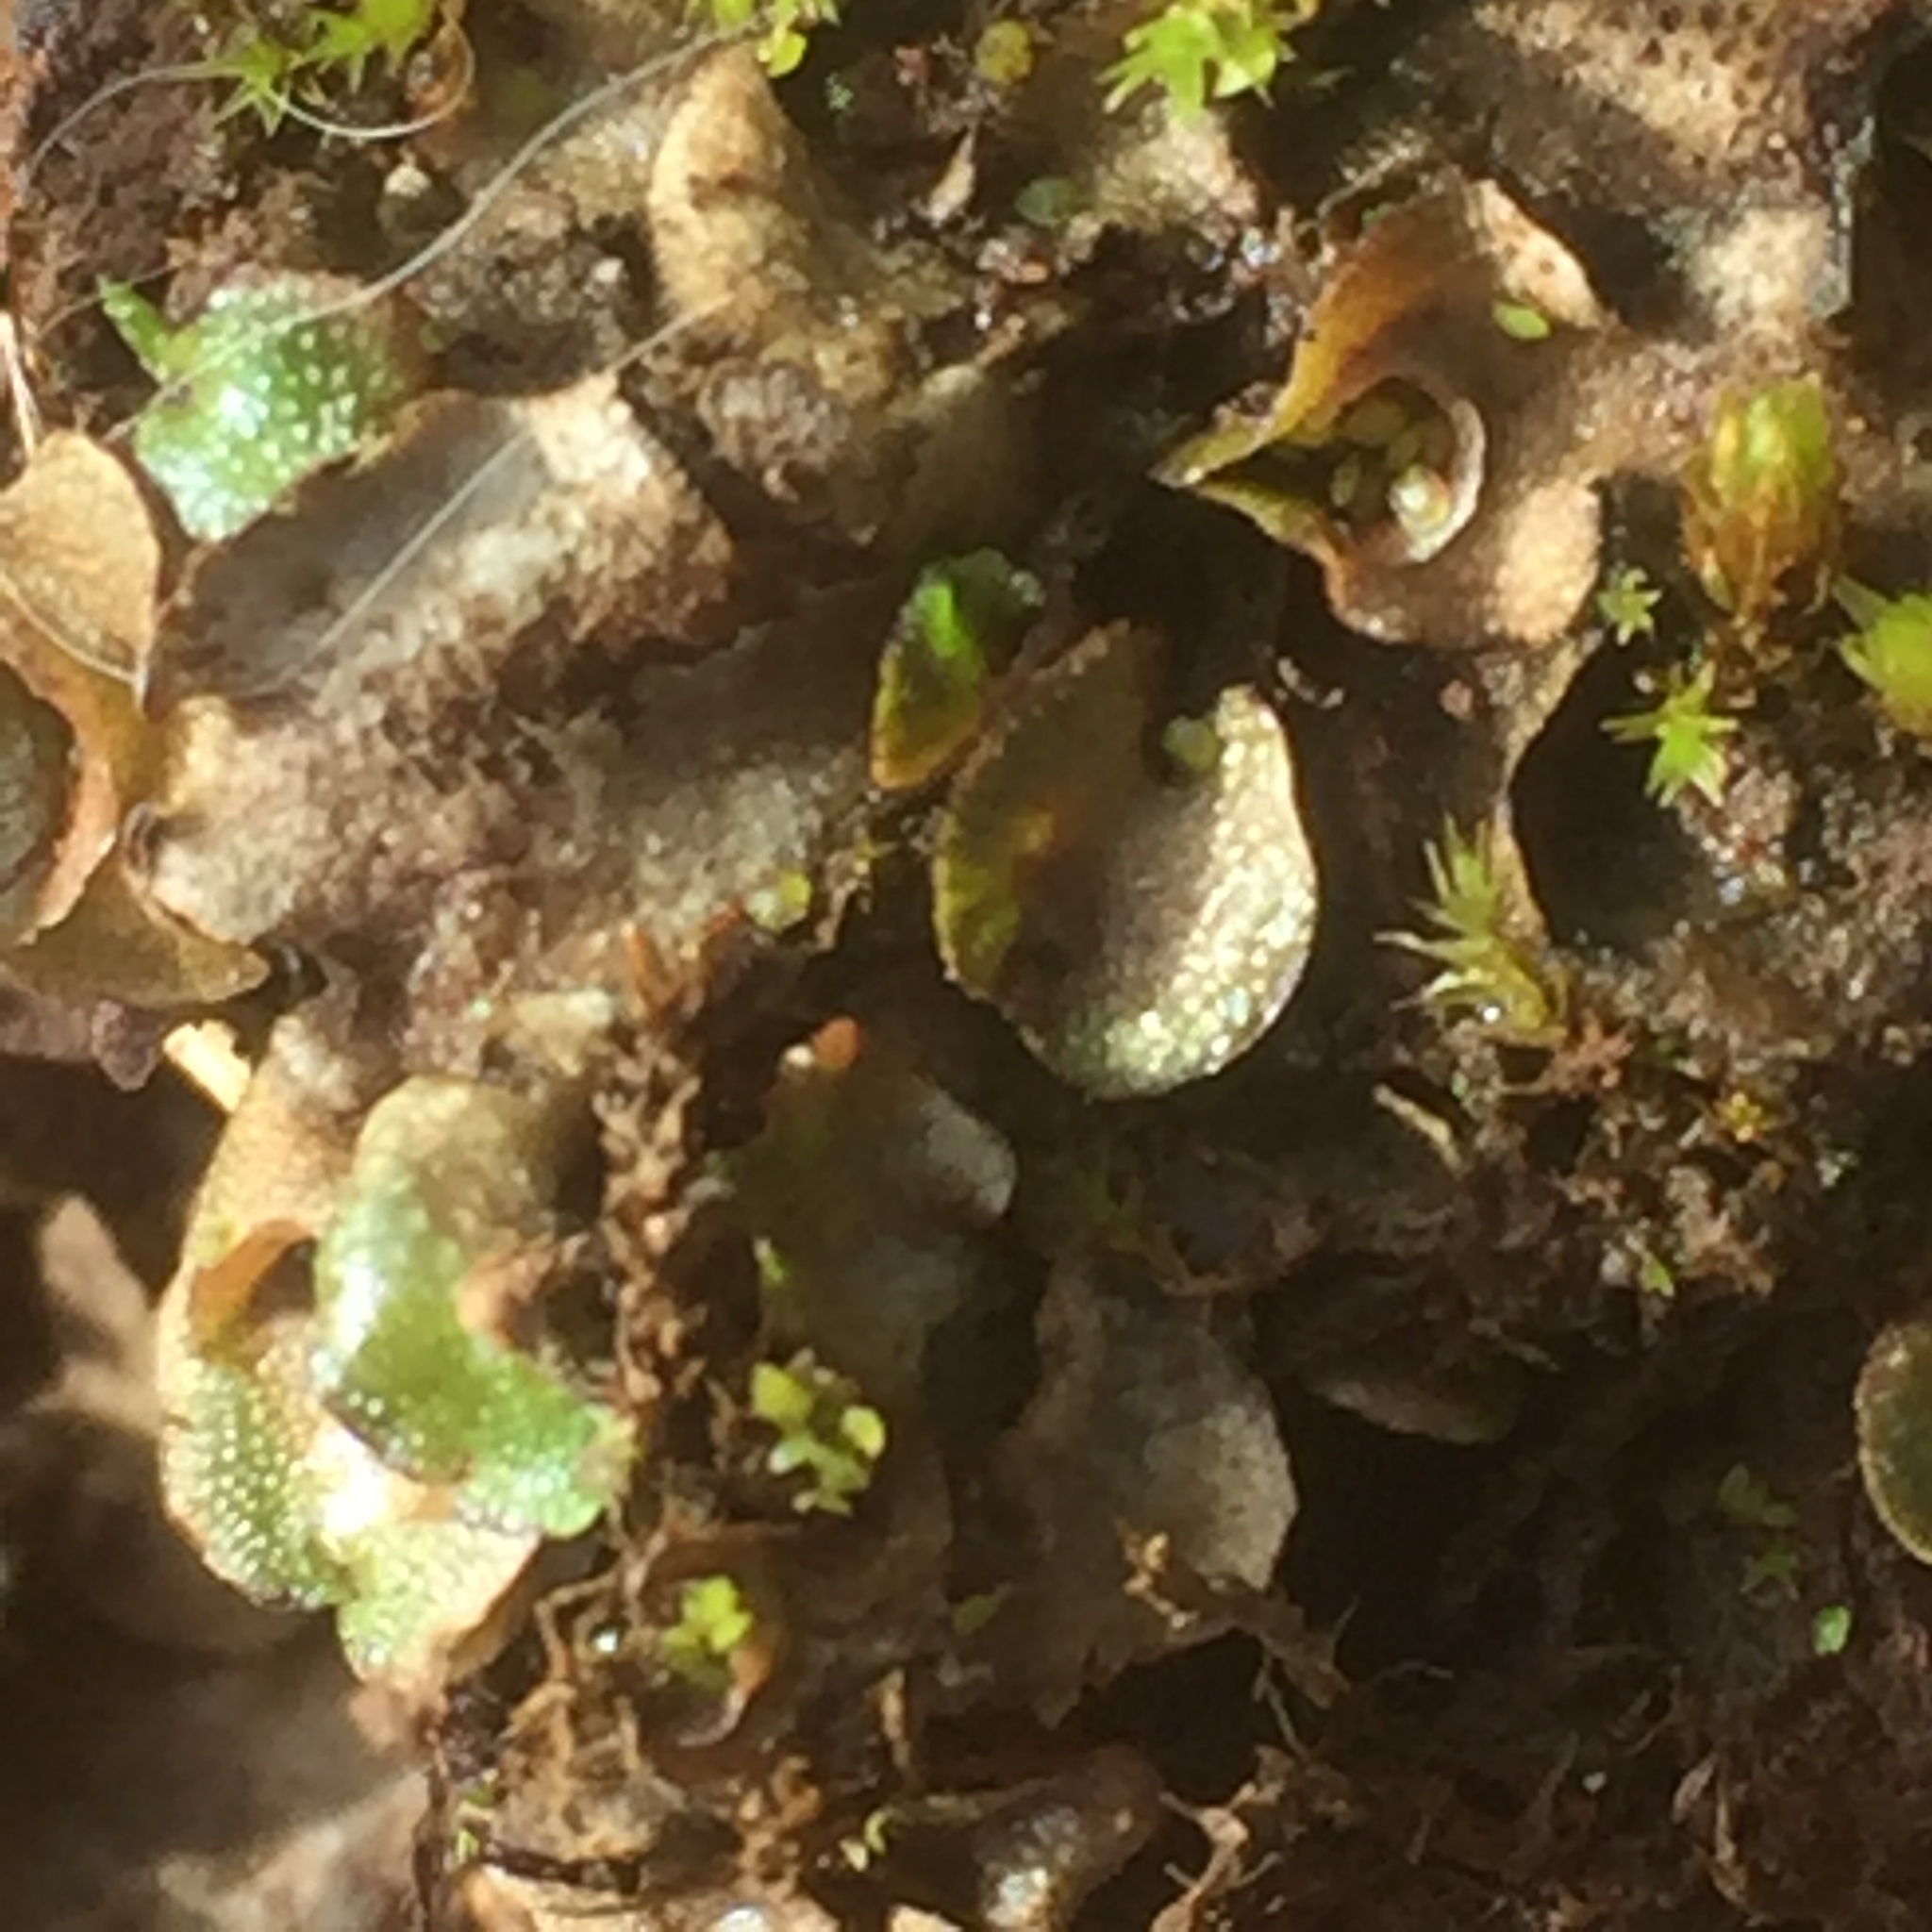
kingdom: Plantae
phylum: Marchantiophyta
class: Marchantiopsida
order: Lunulariales
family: Lunulariaceae
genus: Lunularia
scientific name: Lunularia cruciata
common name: Crescent-cup liverwort
